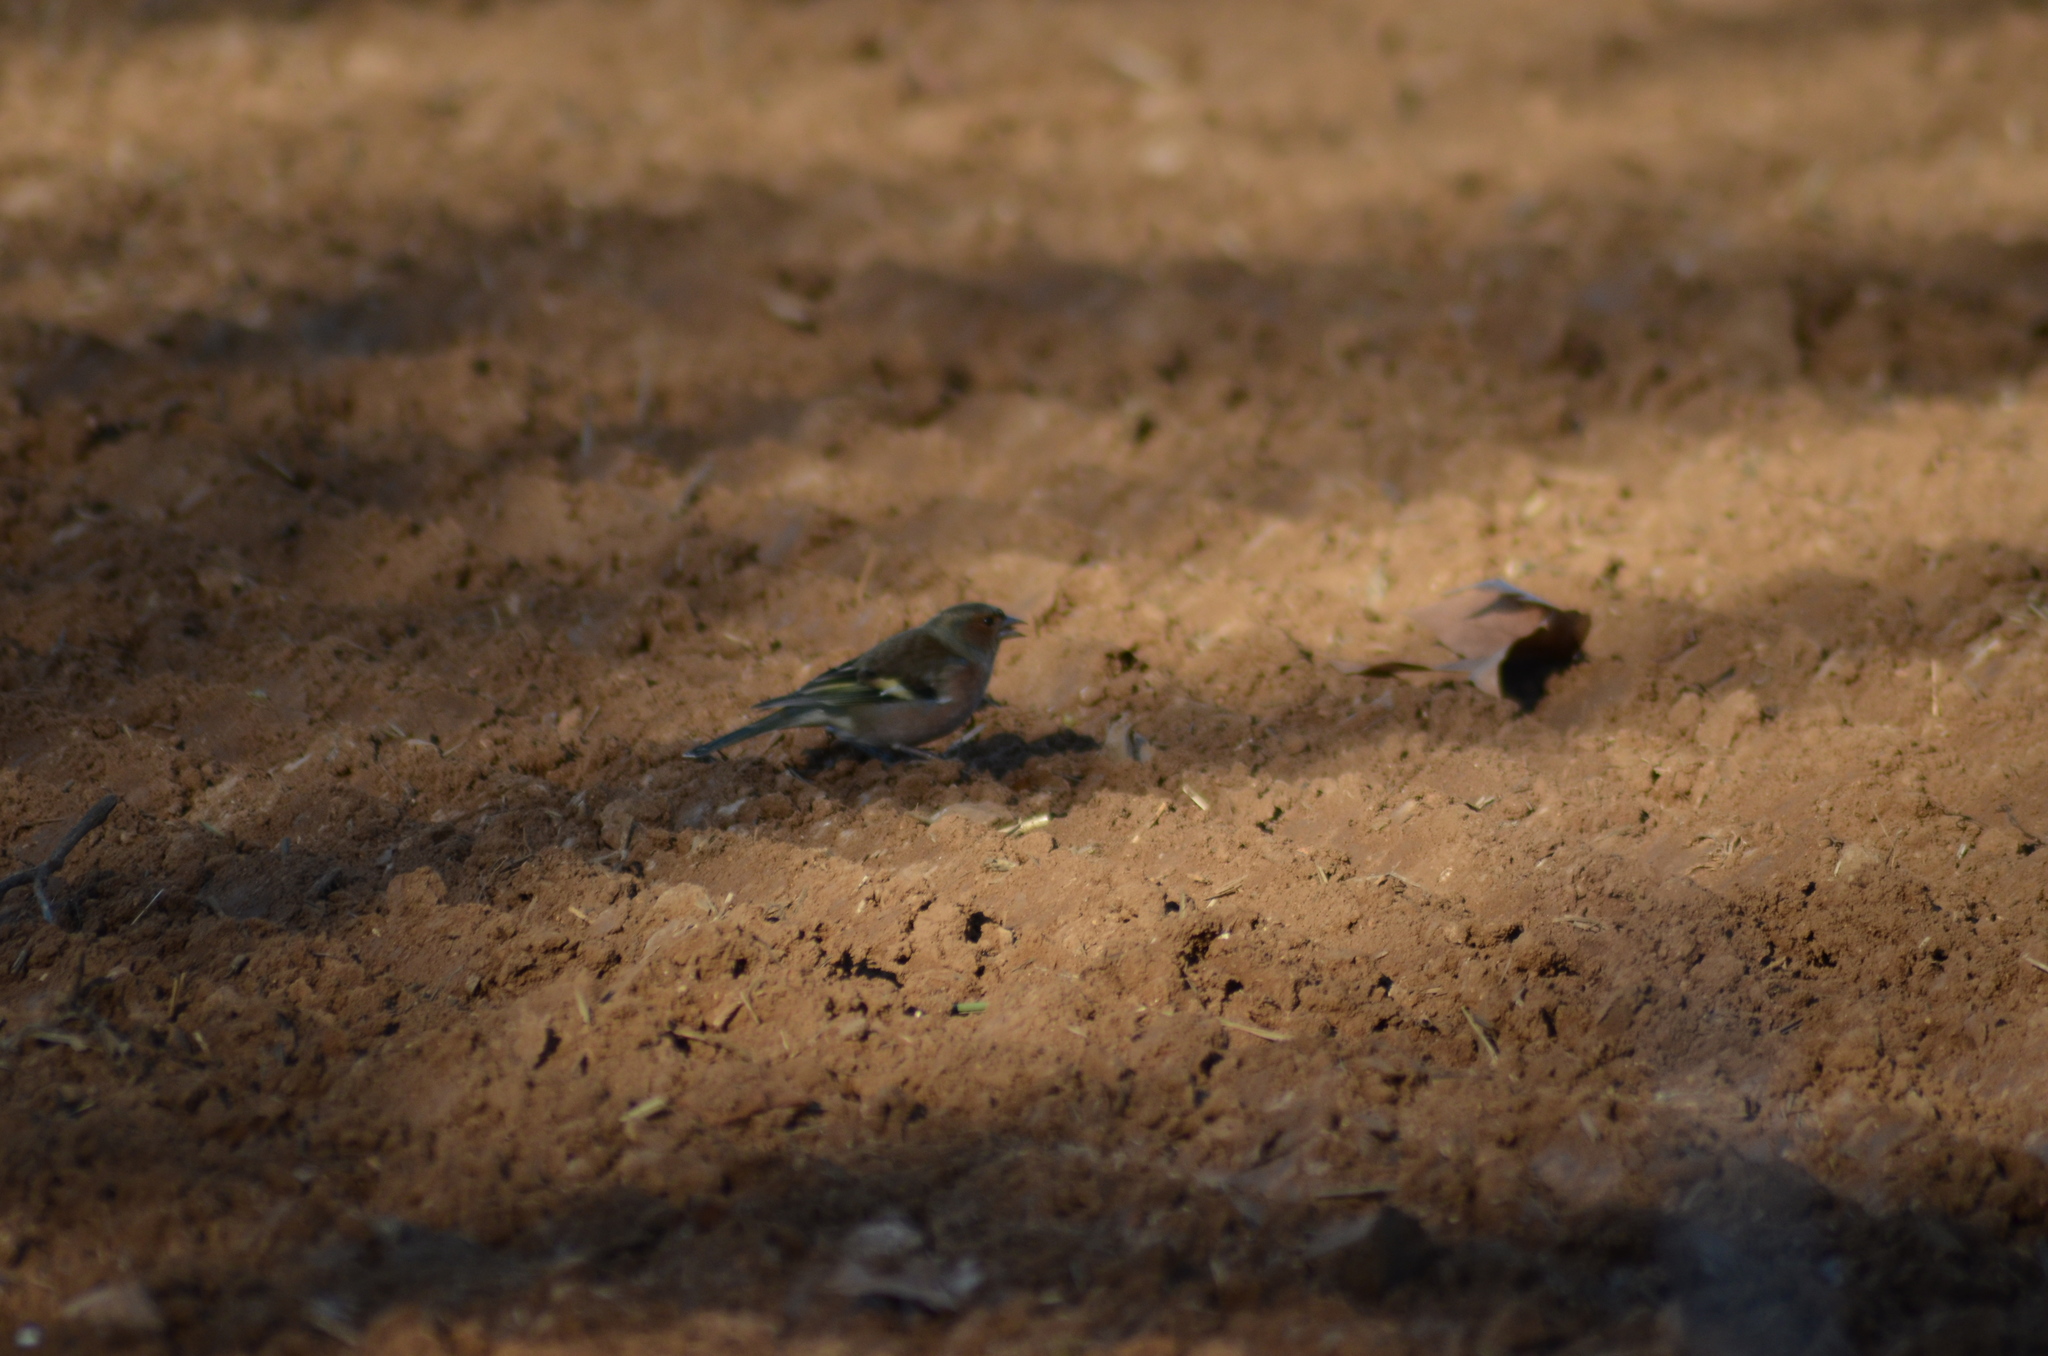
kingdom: Animalia
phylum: Chordata
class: Aves
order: Passeriformes
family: Fringillidae
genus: Fringilla
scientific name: Fringilla coelebs
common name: Common chaffinch
